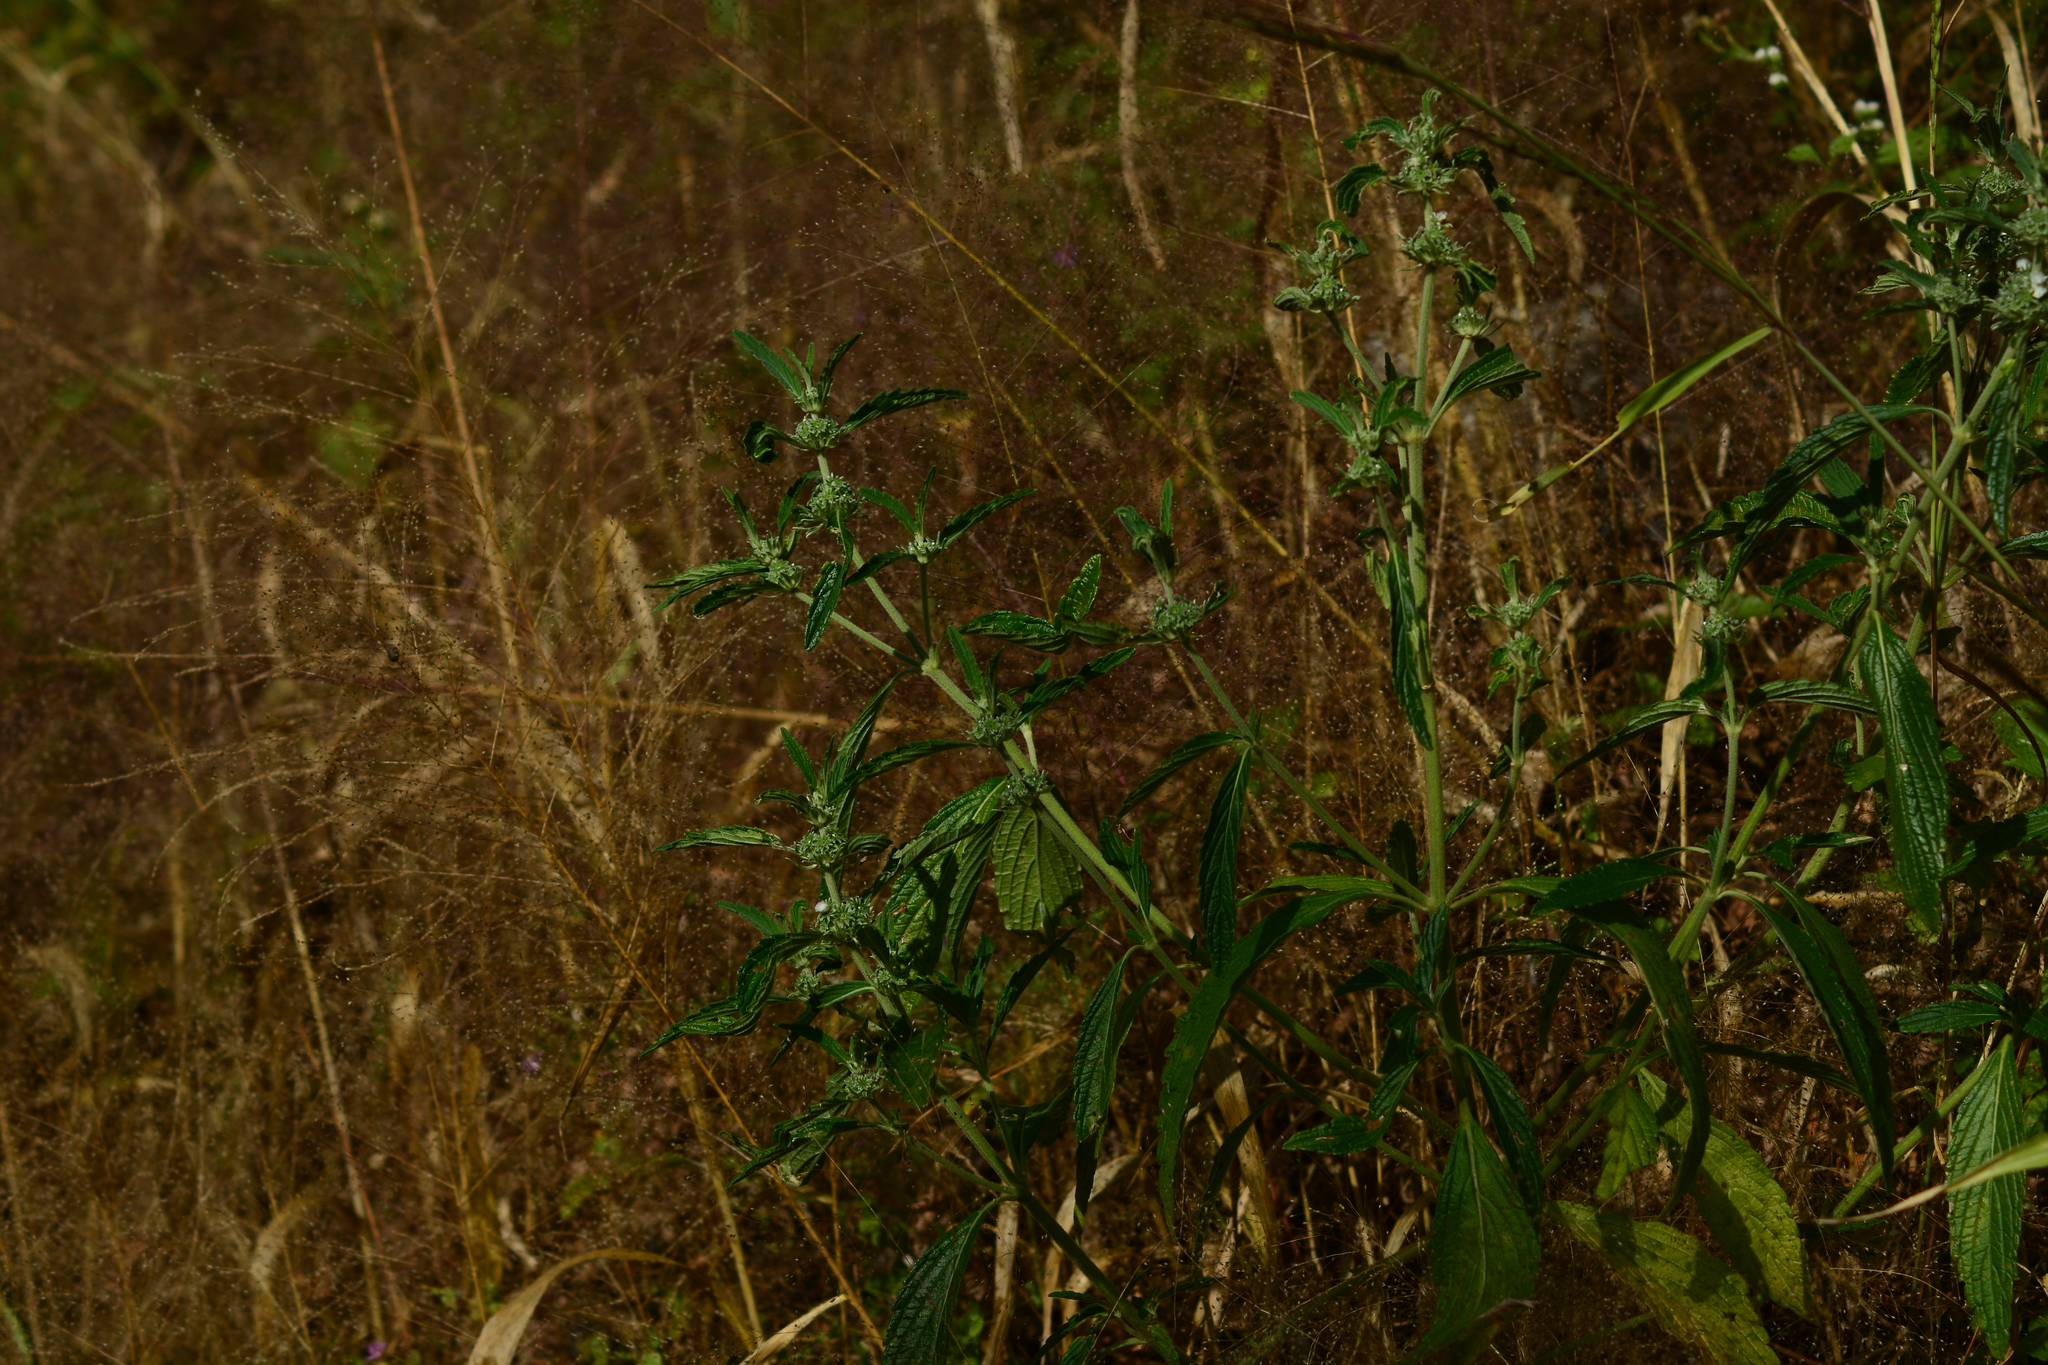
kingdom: Plantae
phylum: Tracheophyta
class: Magnoliopsida
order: Lamiales
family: Lamiaceae
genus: Leucas
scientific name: Leucas stelligera
